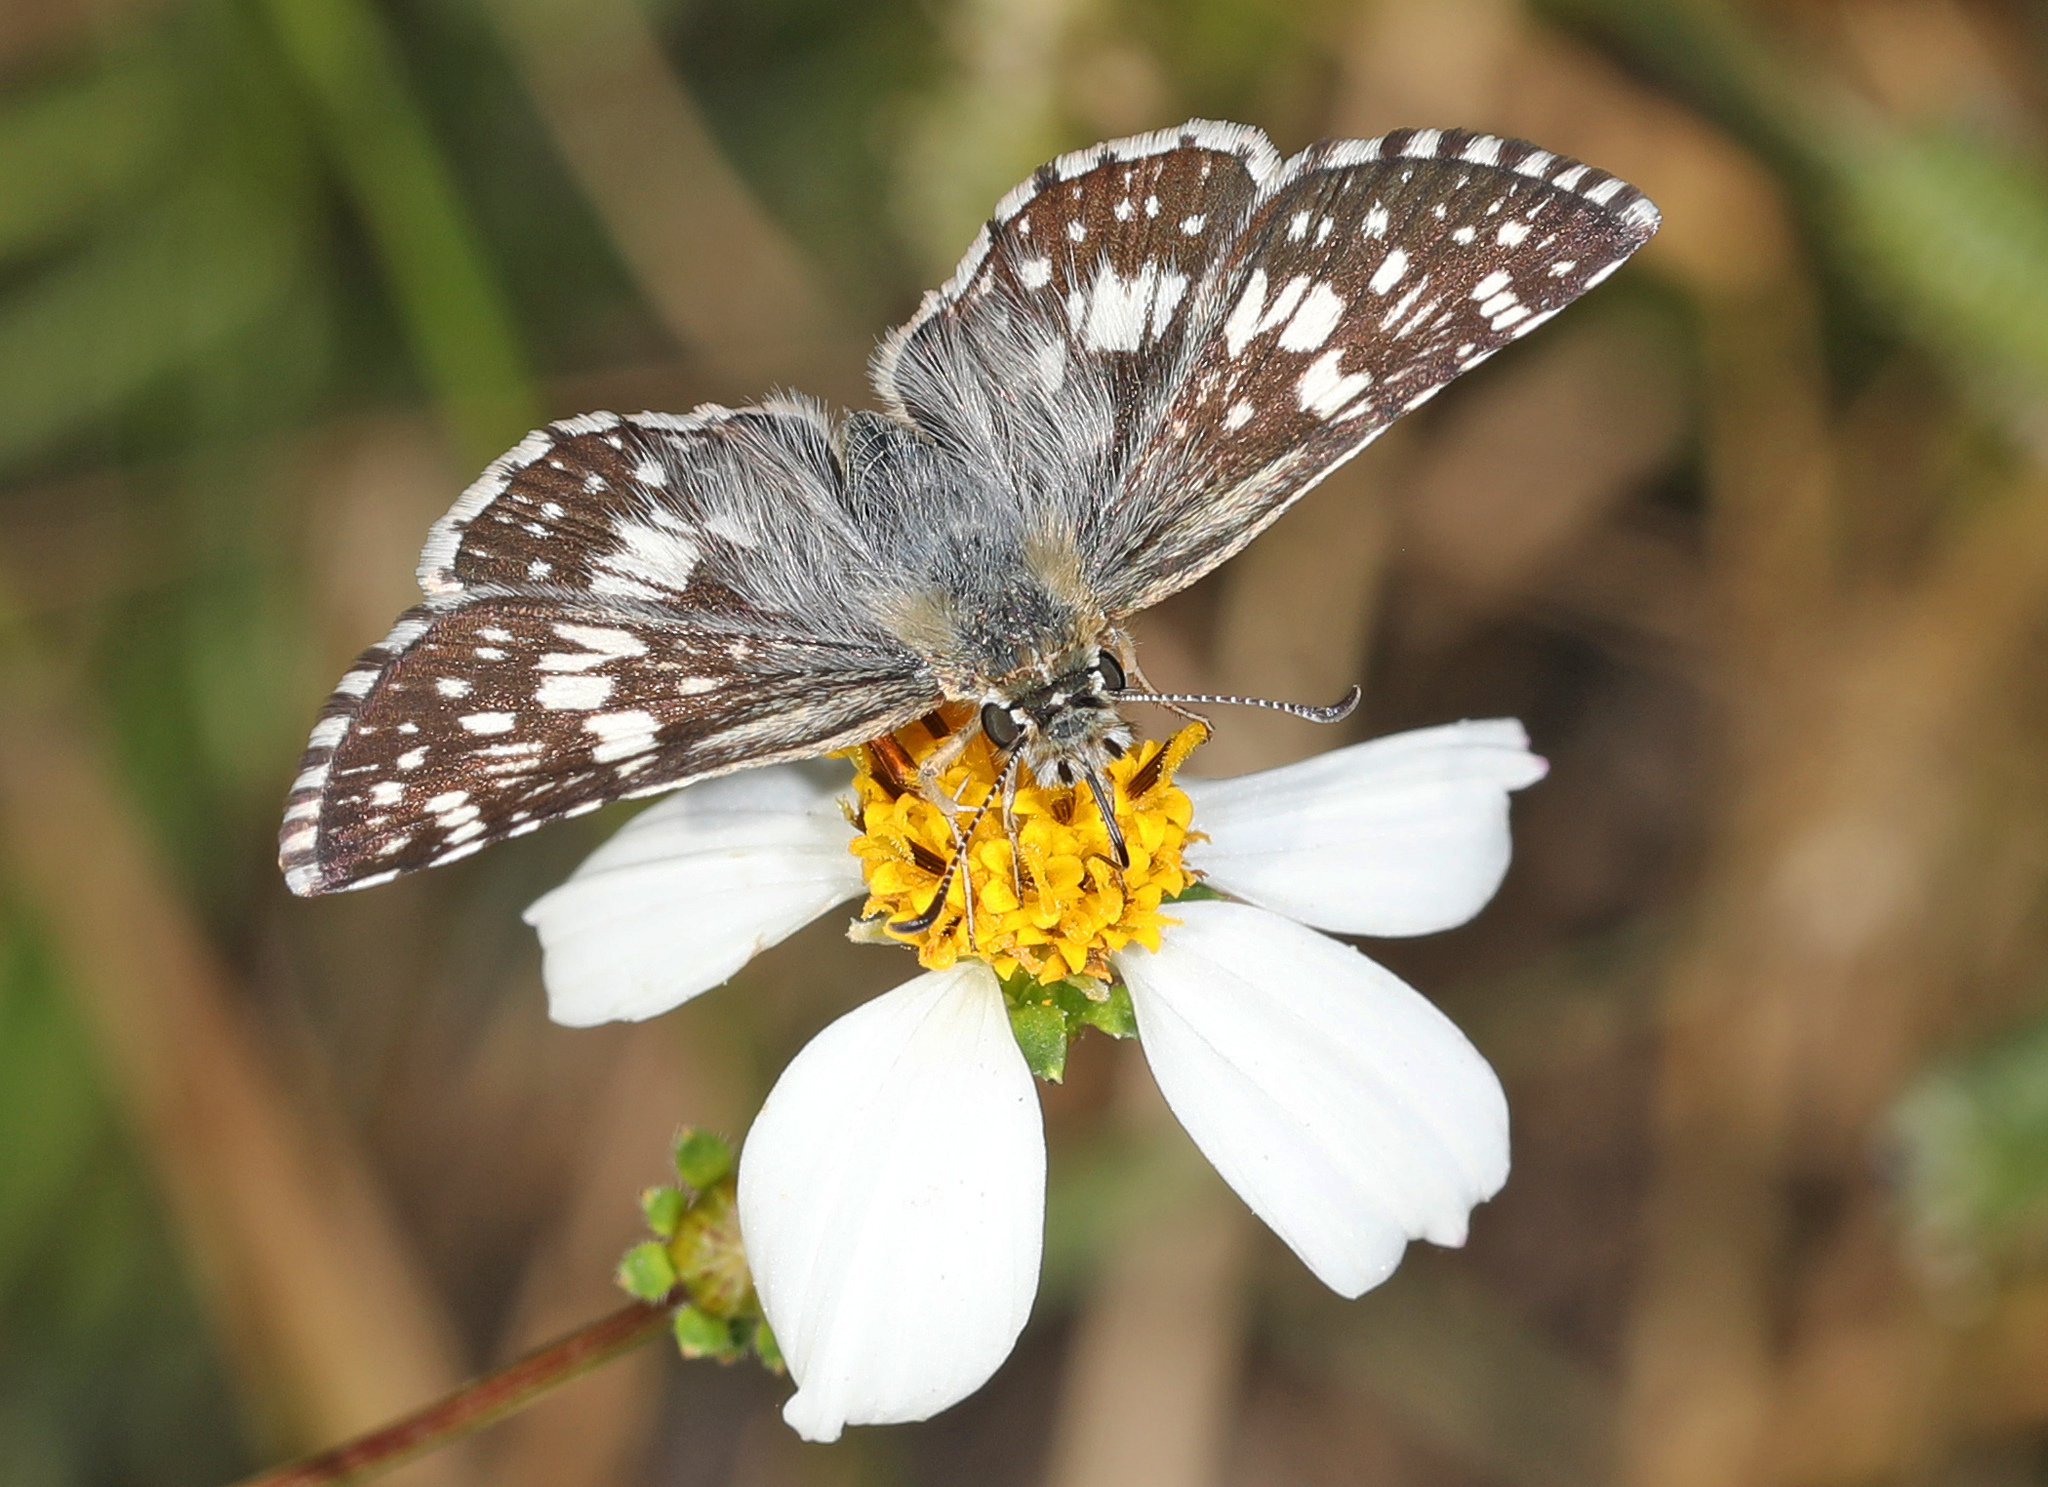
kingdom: Animalia
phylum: Arthropoda
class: Insecta
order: Lepidoptera
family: Hesperiidae
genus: Burnsius
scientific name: Burnsius albezens
